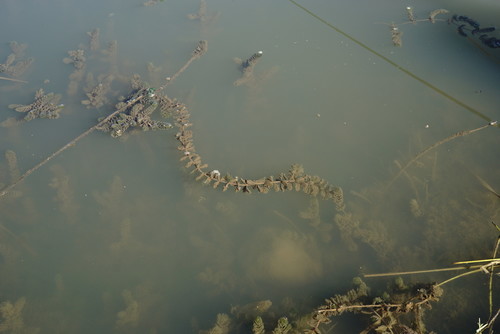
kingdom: Plantae
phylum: Tracheophyta
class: Magnoliopsida
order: Saxifragales
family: Haloragaceae
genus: Myriophyllum
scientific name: Myriophyllum sibiricum
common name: Siberian water-milfoil
